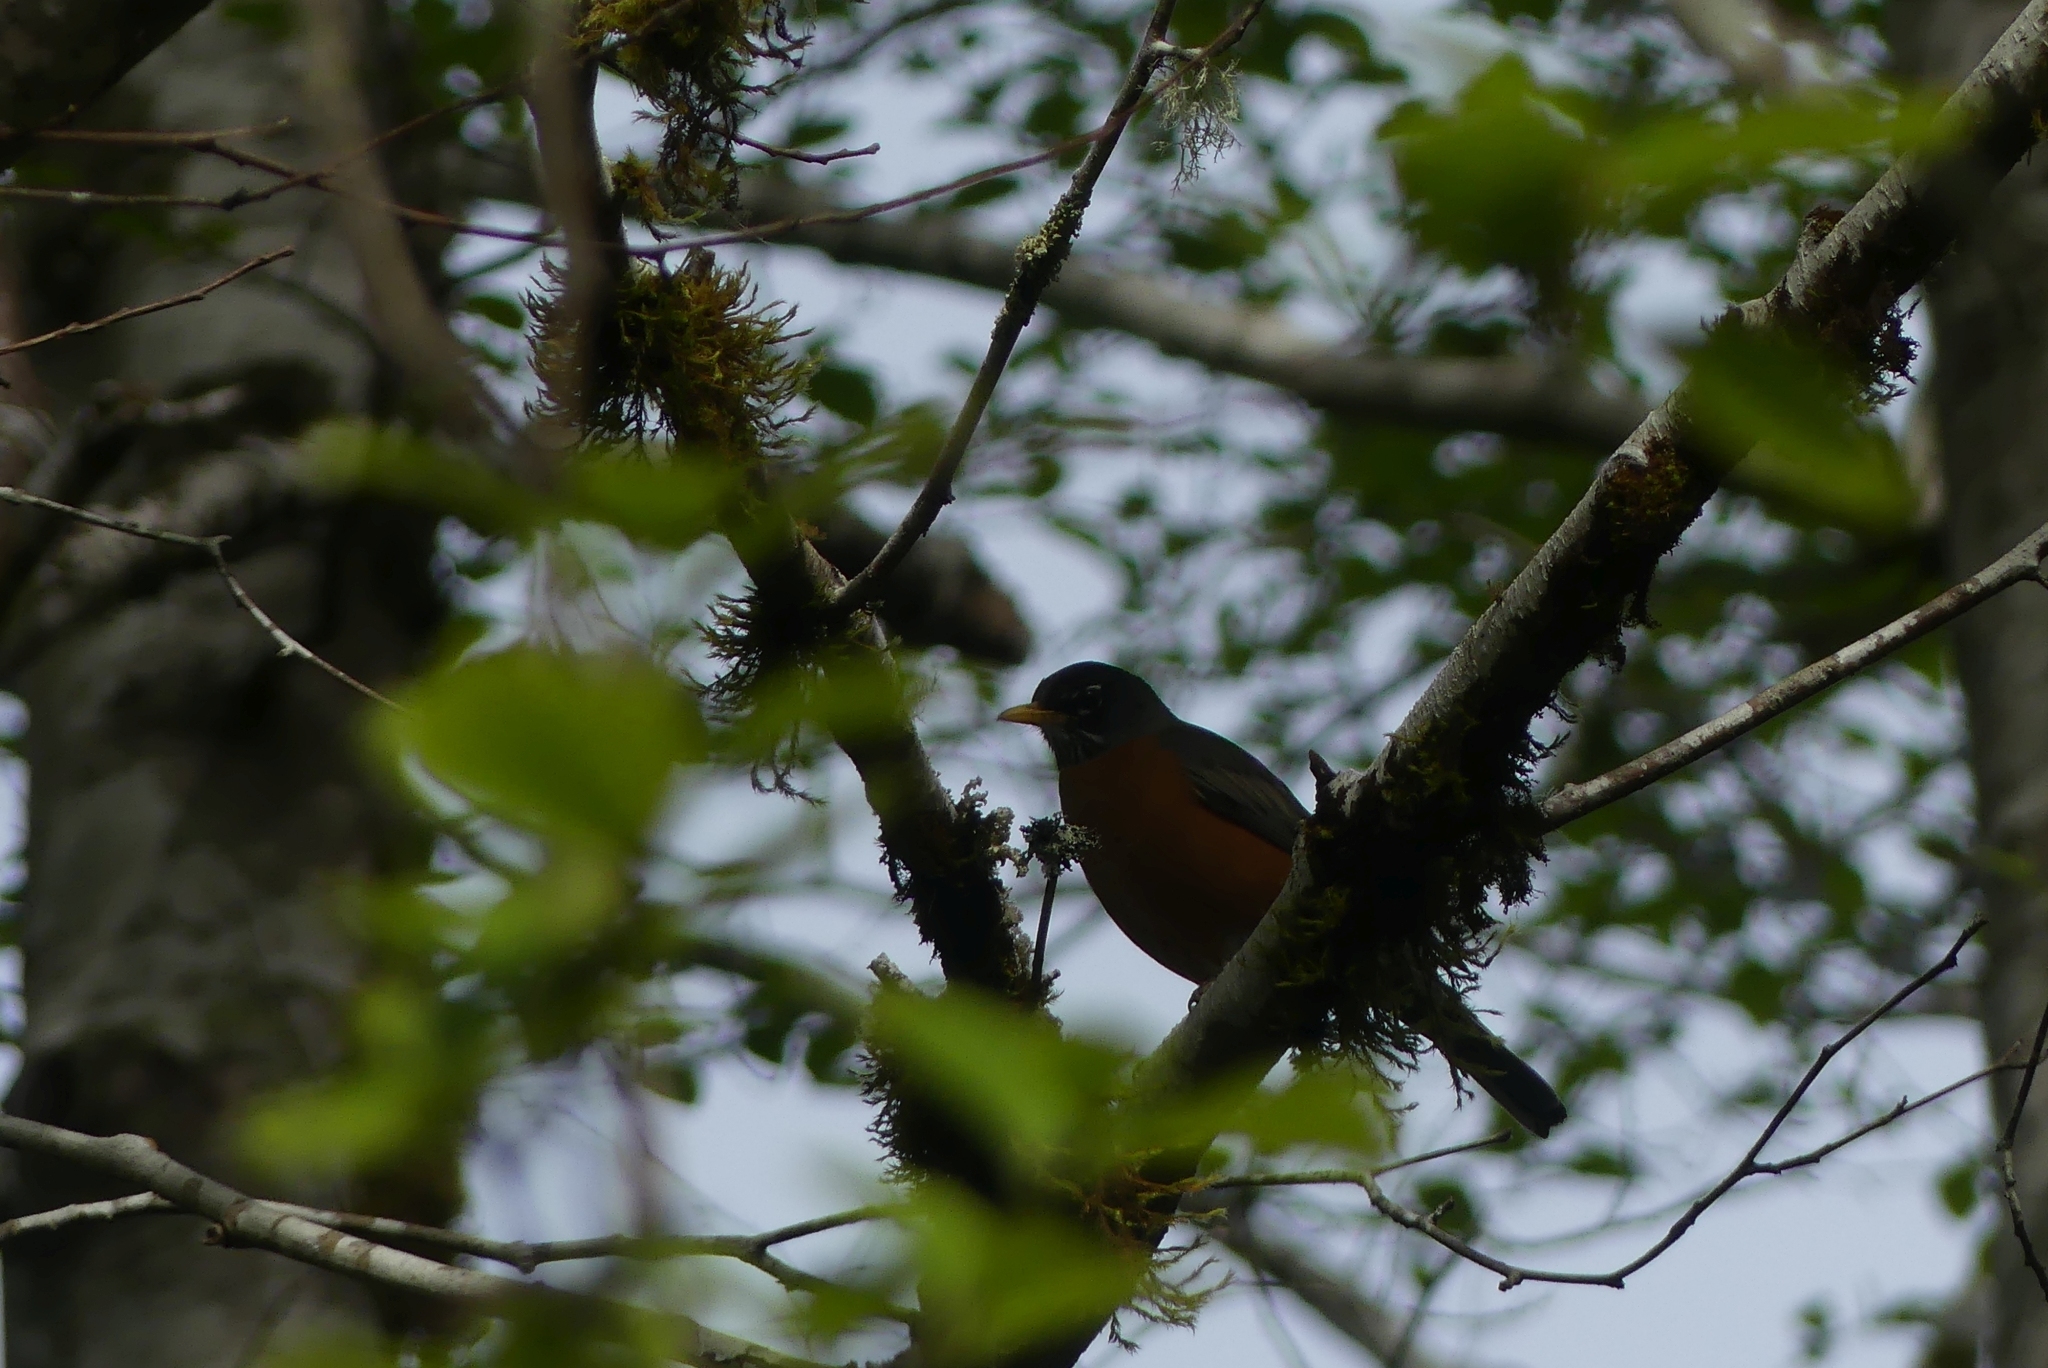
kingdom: Animalia
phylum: Chordata
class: Aves
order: Passeriformes
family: Turdidae
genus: Turdus
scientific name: Turdus migratorius
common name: American robin
